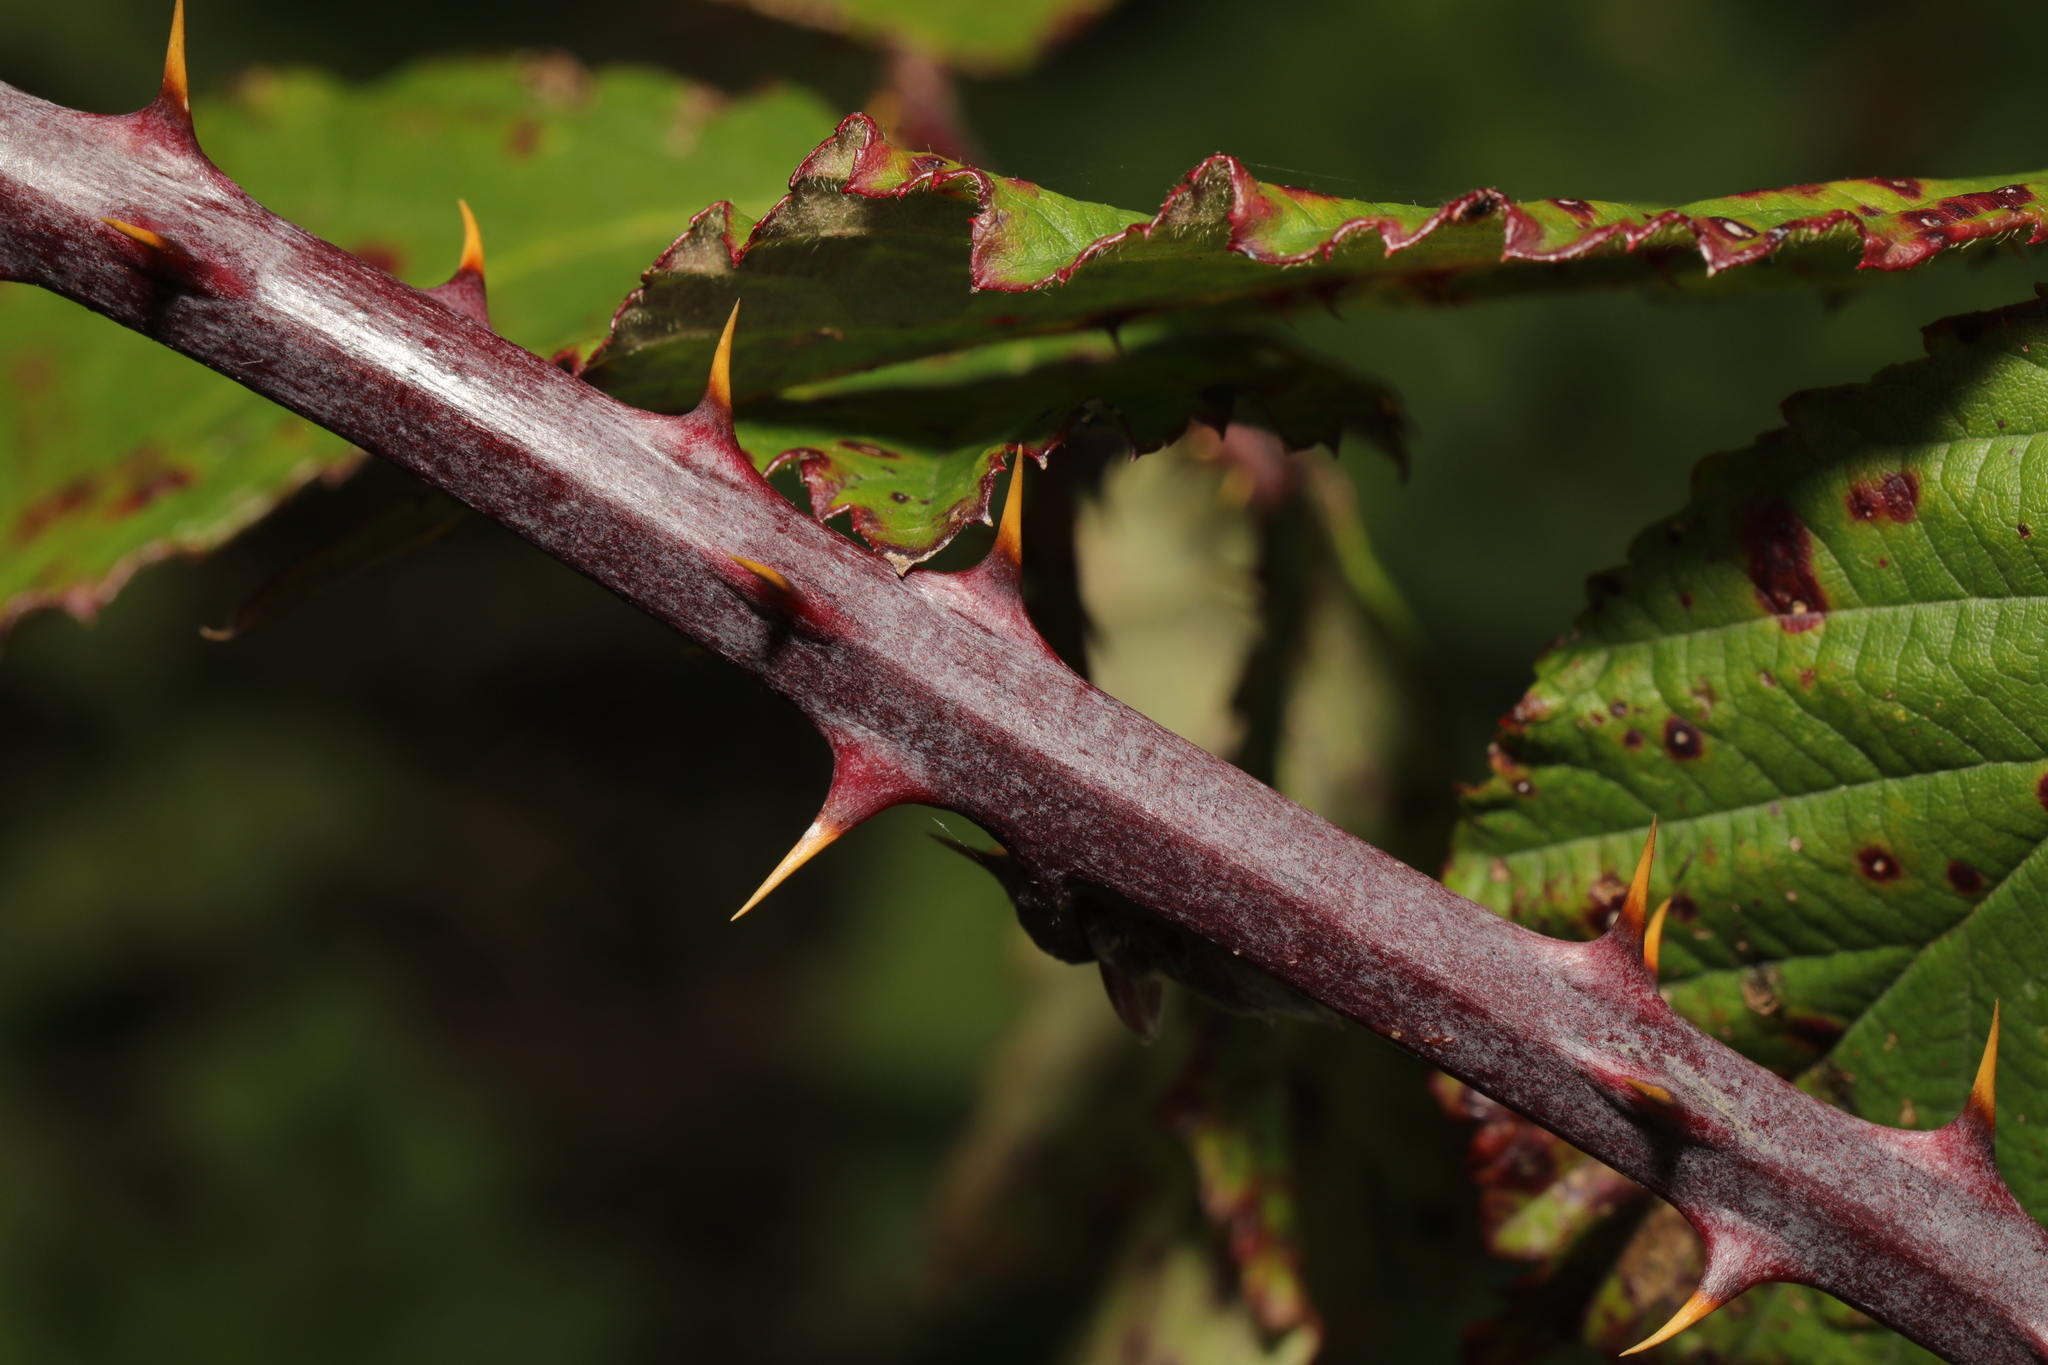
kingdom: Plantae
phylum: Tracheophyta
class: Magnoliopsida
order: Rosales
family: Rosaceae
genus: Rubus
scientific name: Rubus nemoralis
